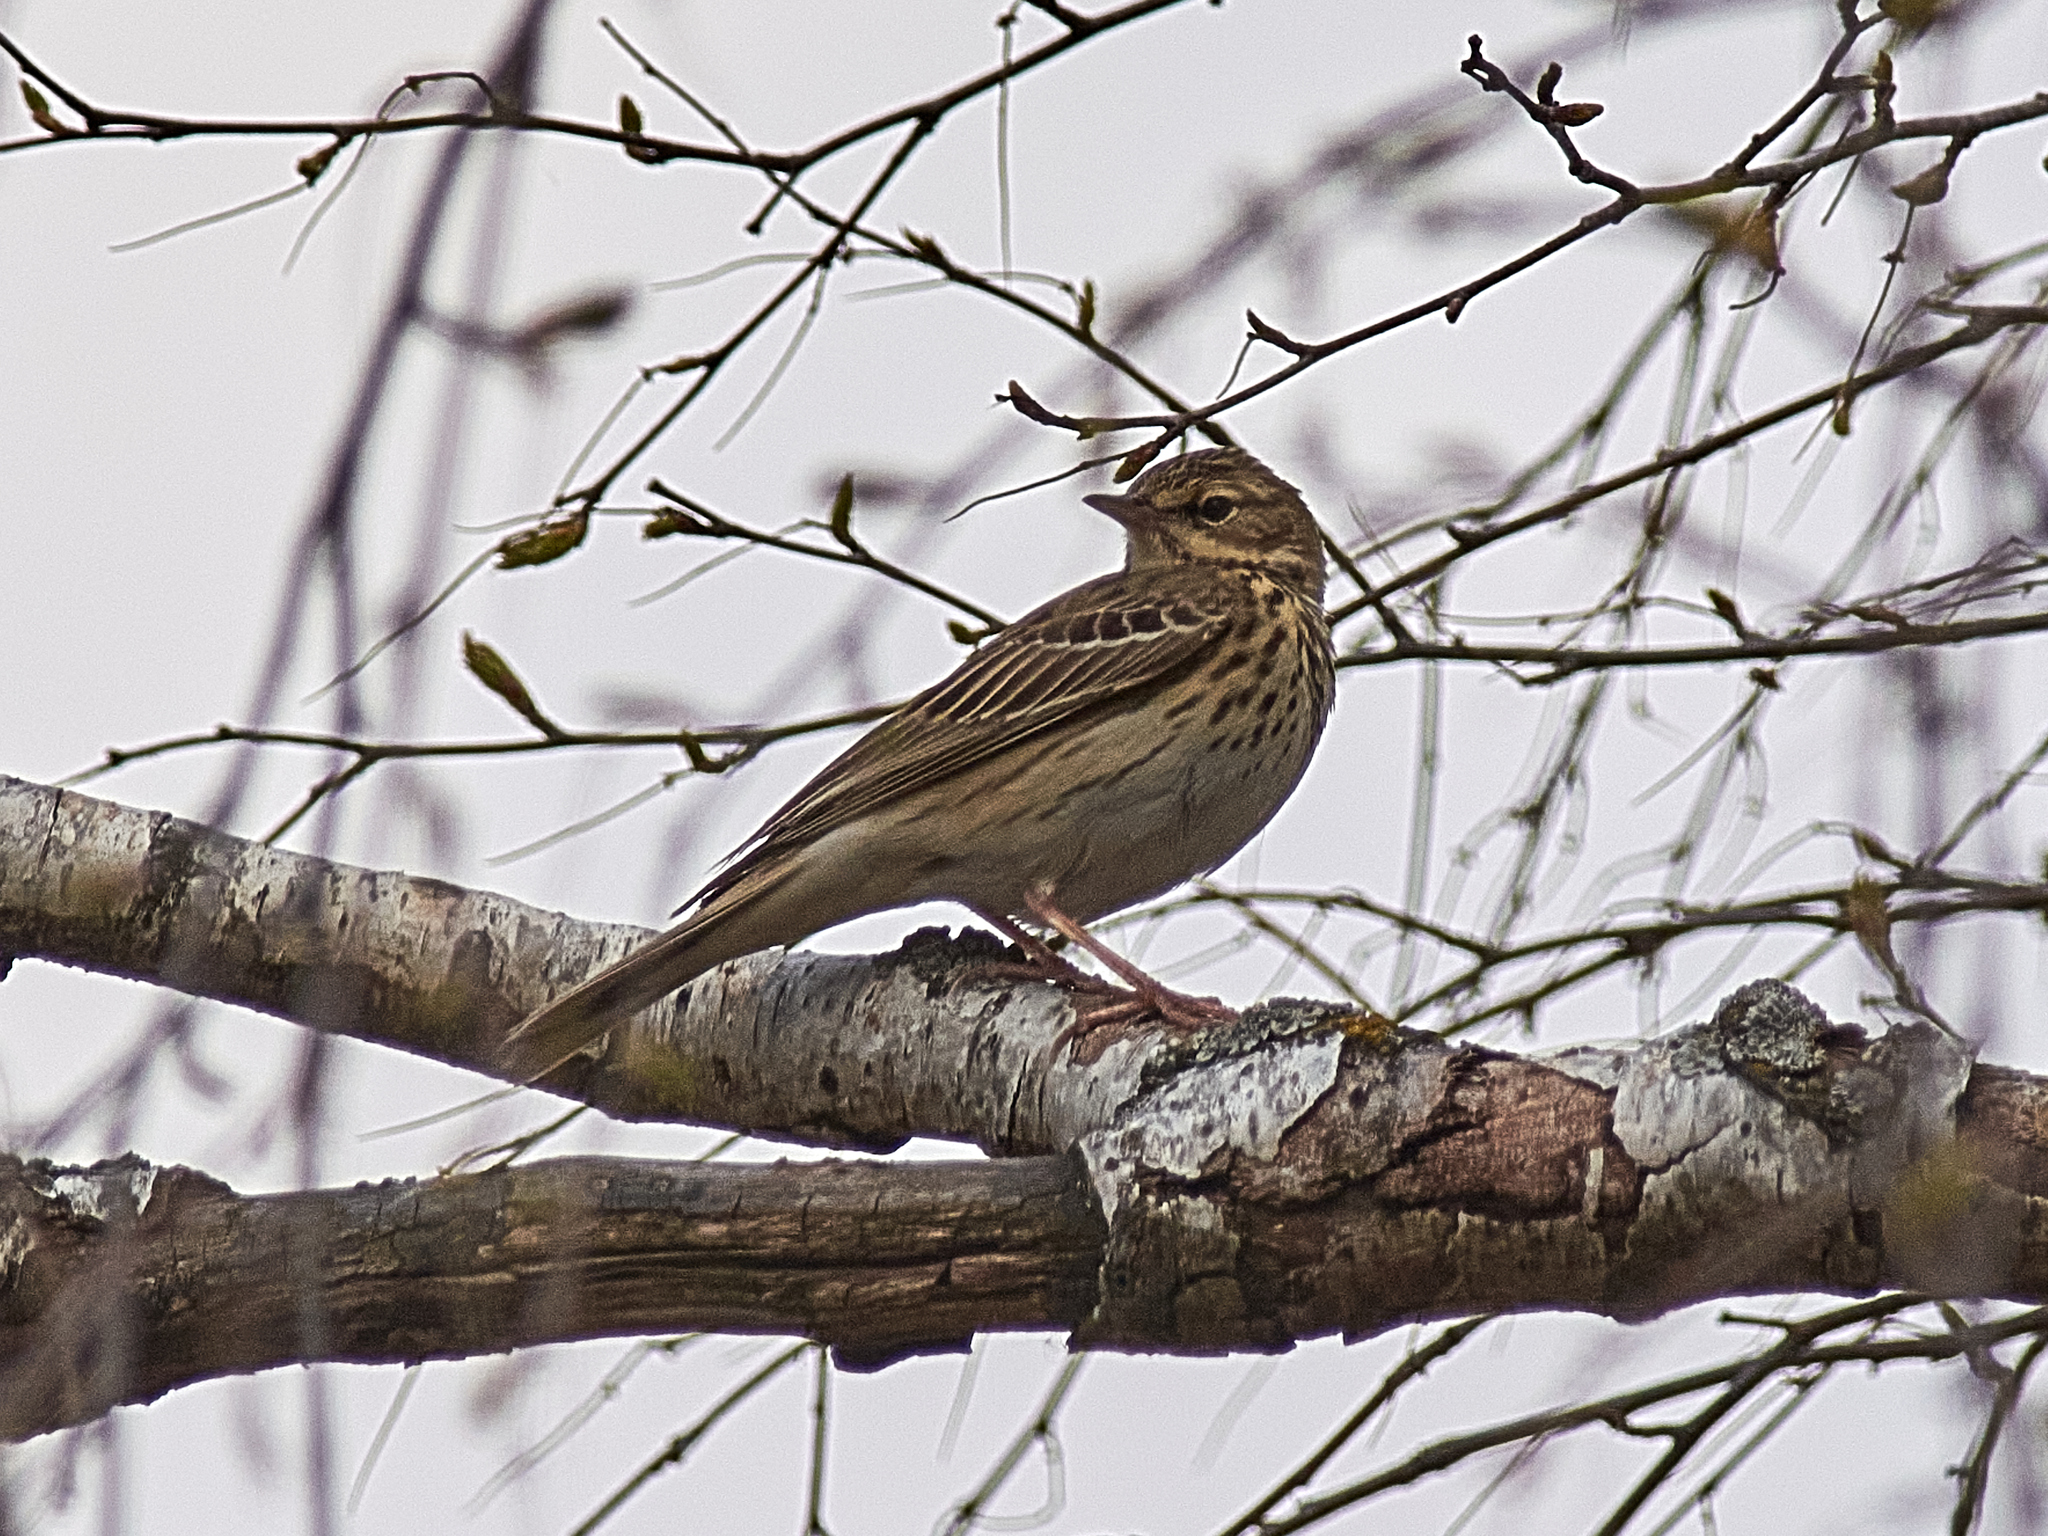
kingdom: Animalia
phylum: Chordata
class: Aves
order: Passeriformes
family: Motacillidae
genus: Anthus
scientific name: Anthus trivialis
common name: Tree pipit
